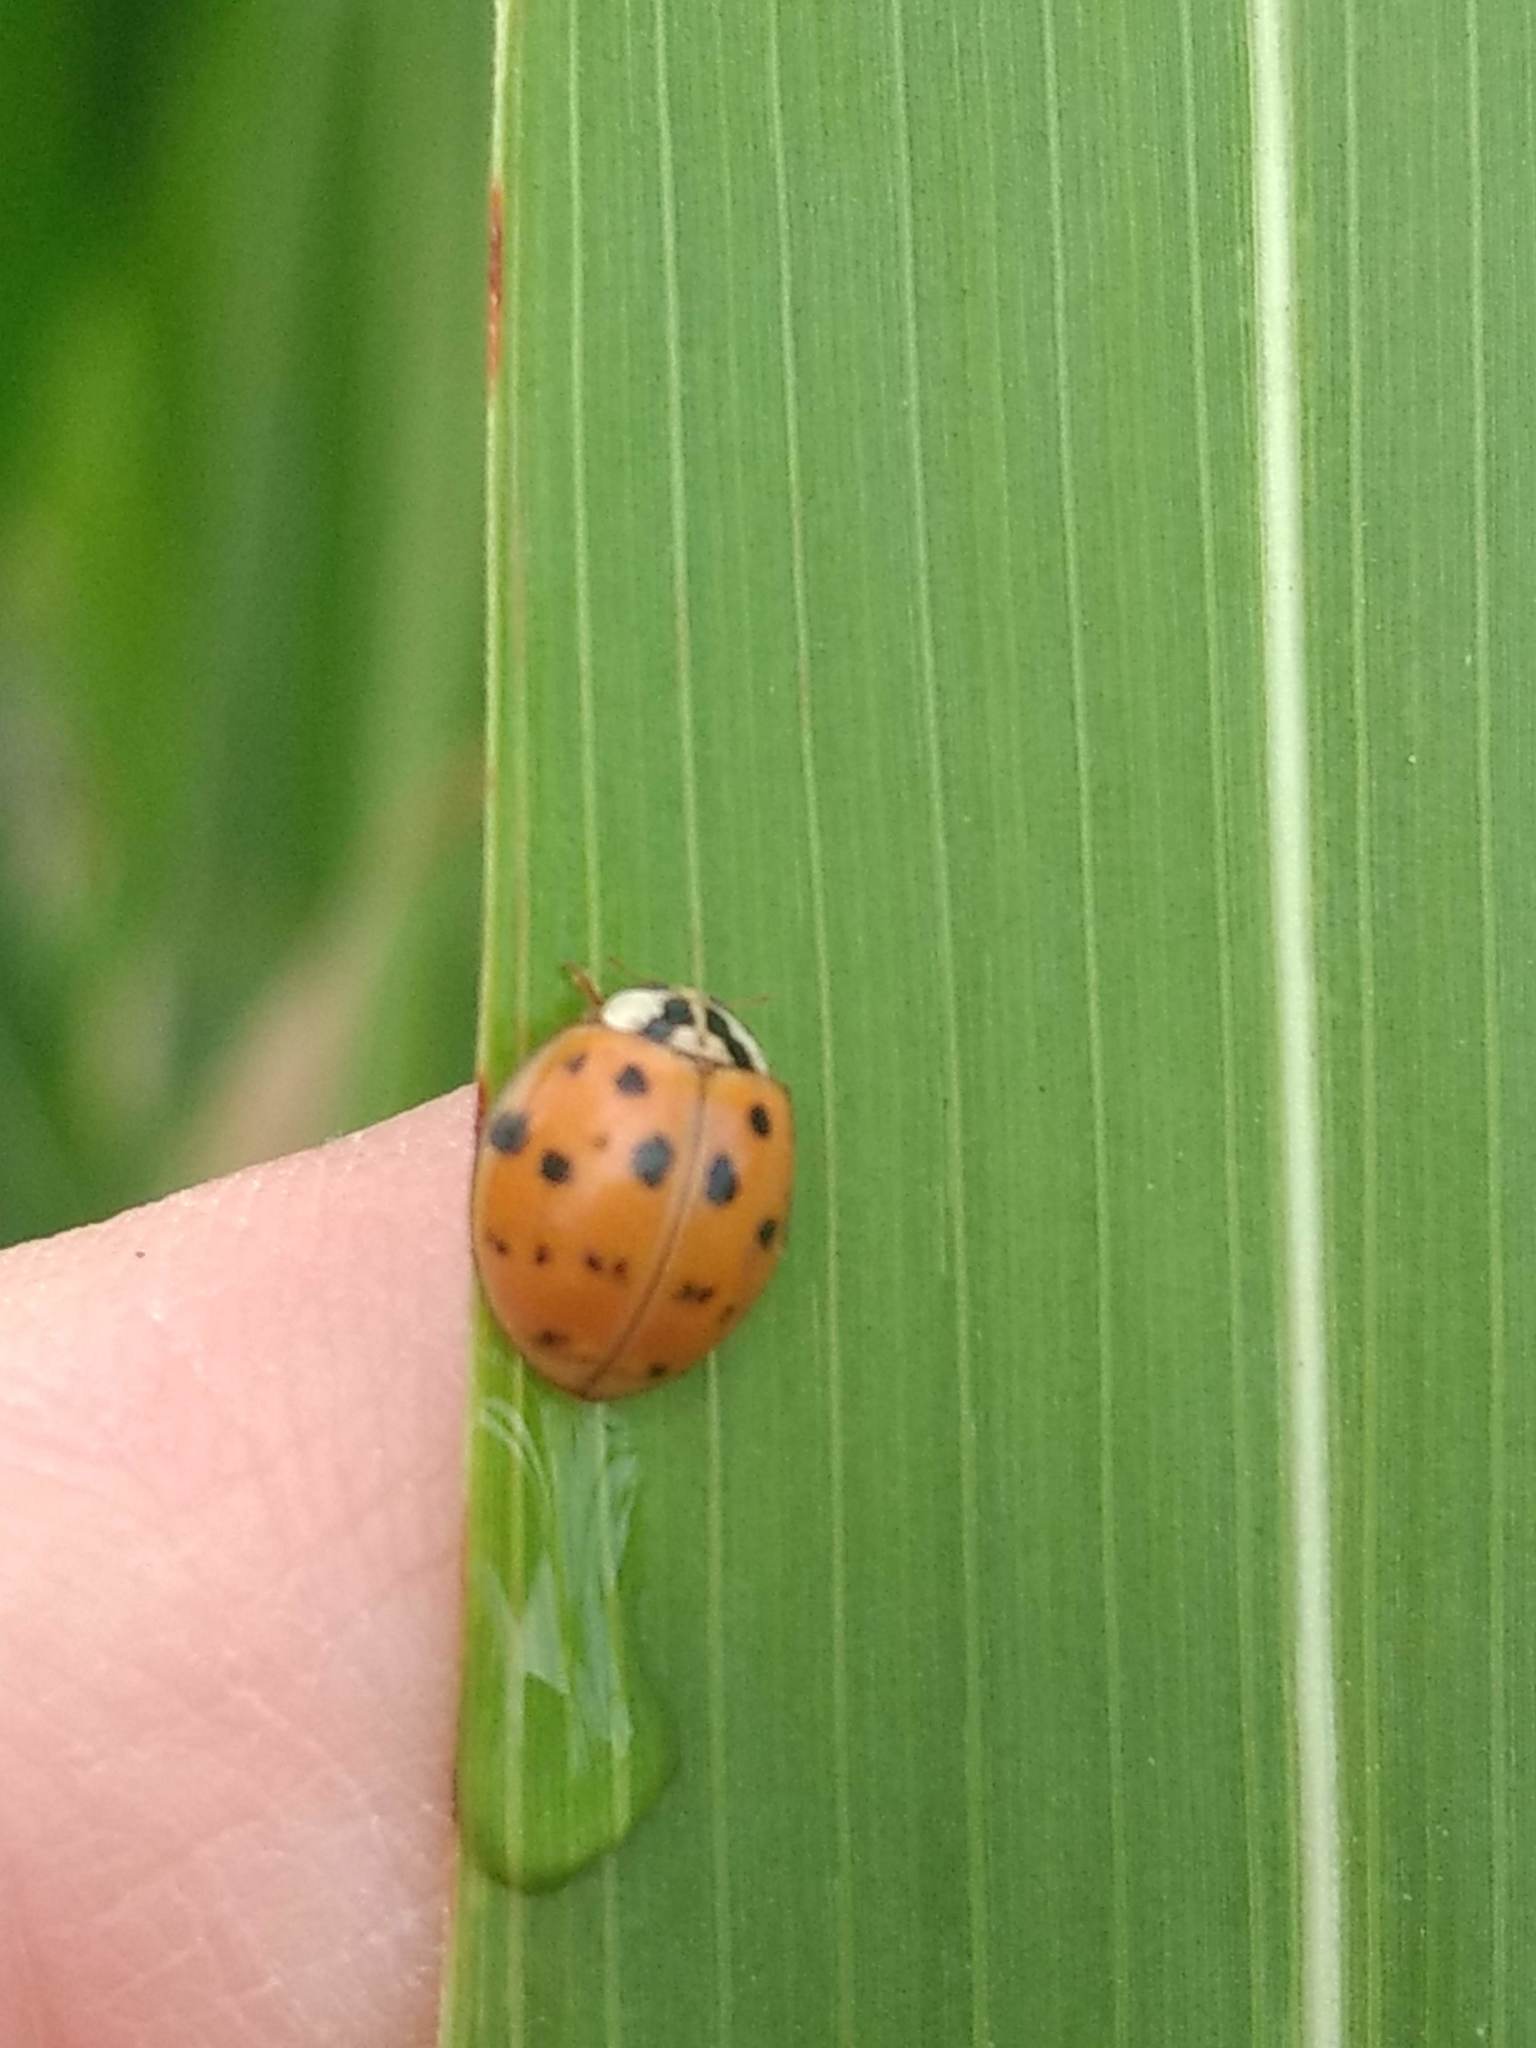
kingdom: Animalia
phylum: Arthropoda
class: Insecta
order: Coleoptera
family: Coccinellidae
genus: Harmonia
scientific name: Harmonia axyridis
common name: Harlequin ladybird
